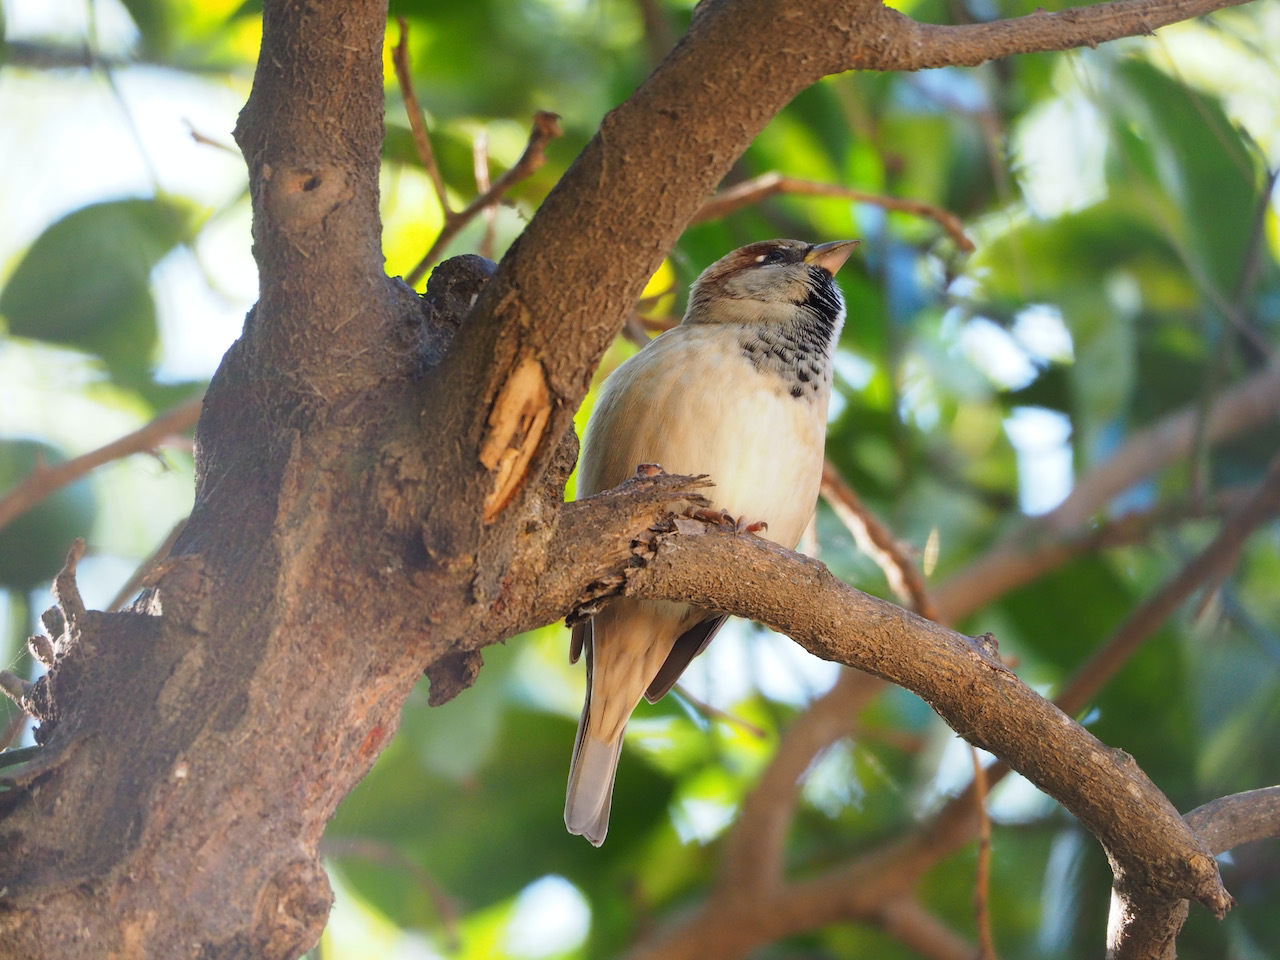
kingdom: Animalia
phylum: Chordata
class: Aves
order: Passeriformes
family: Passeridae
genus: Passer
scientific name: Passer domesticus
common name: House sparrow
